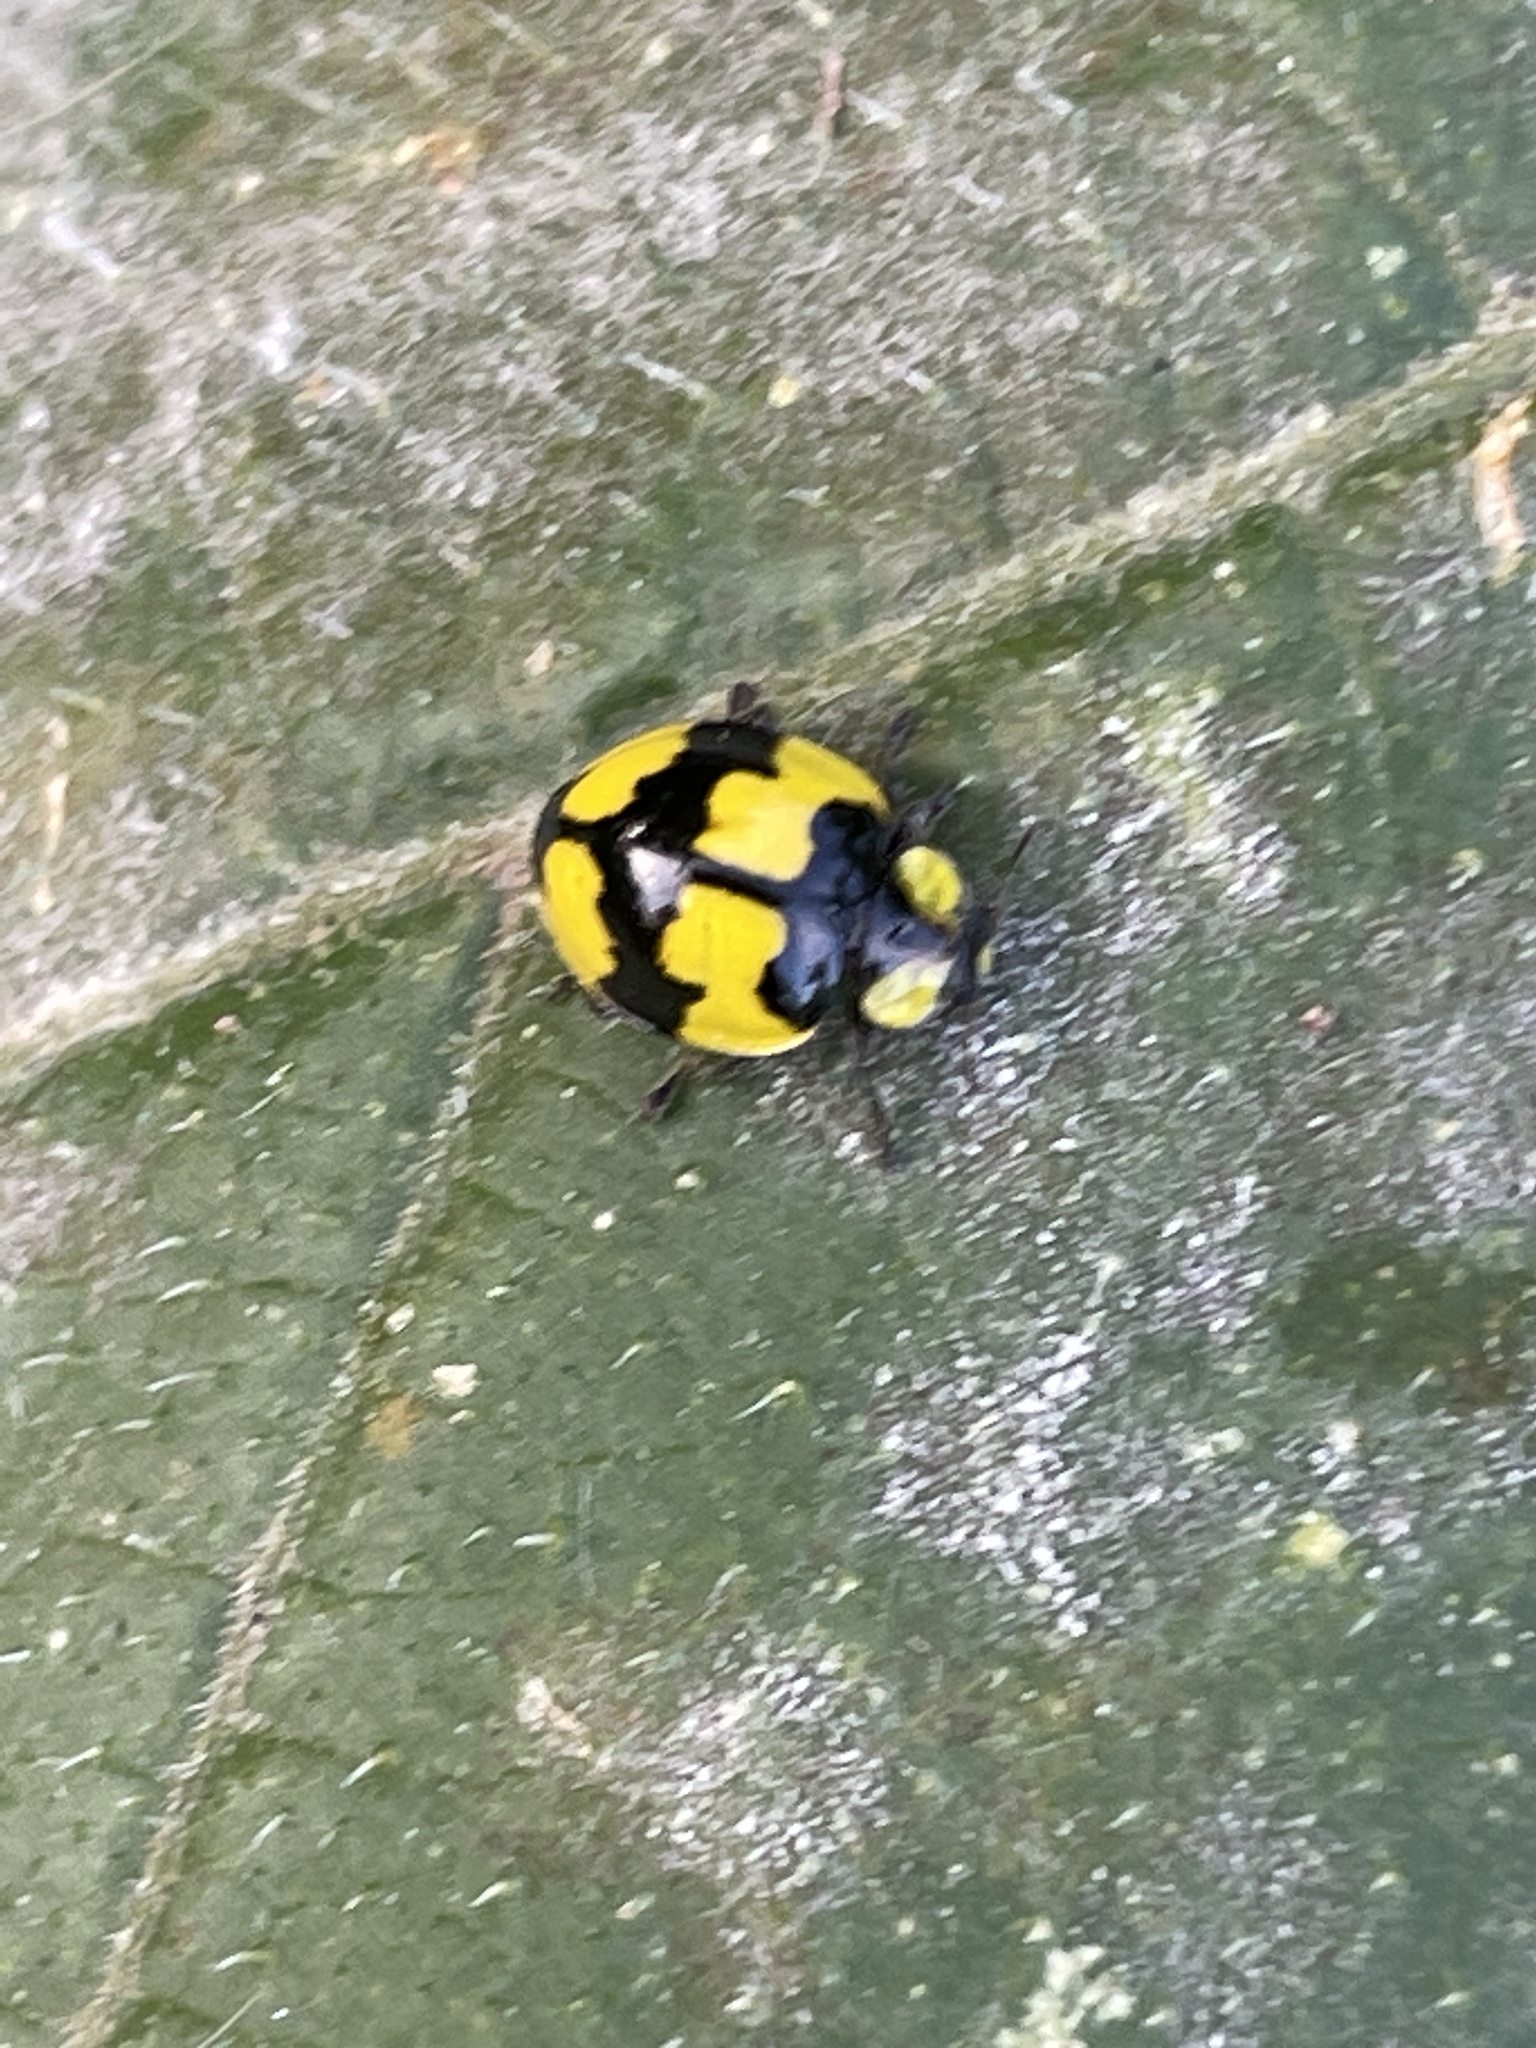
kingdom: Animalia
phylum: Arthropoda
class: Insecta
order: Coleoptera
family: Coccinellidae
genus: Illeis
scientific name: Illeis galbula
